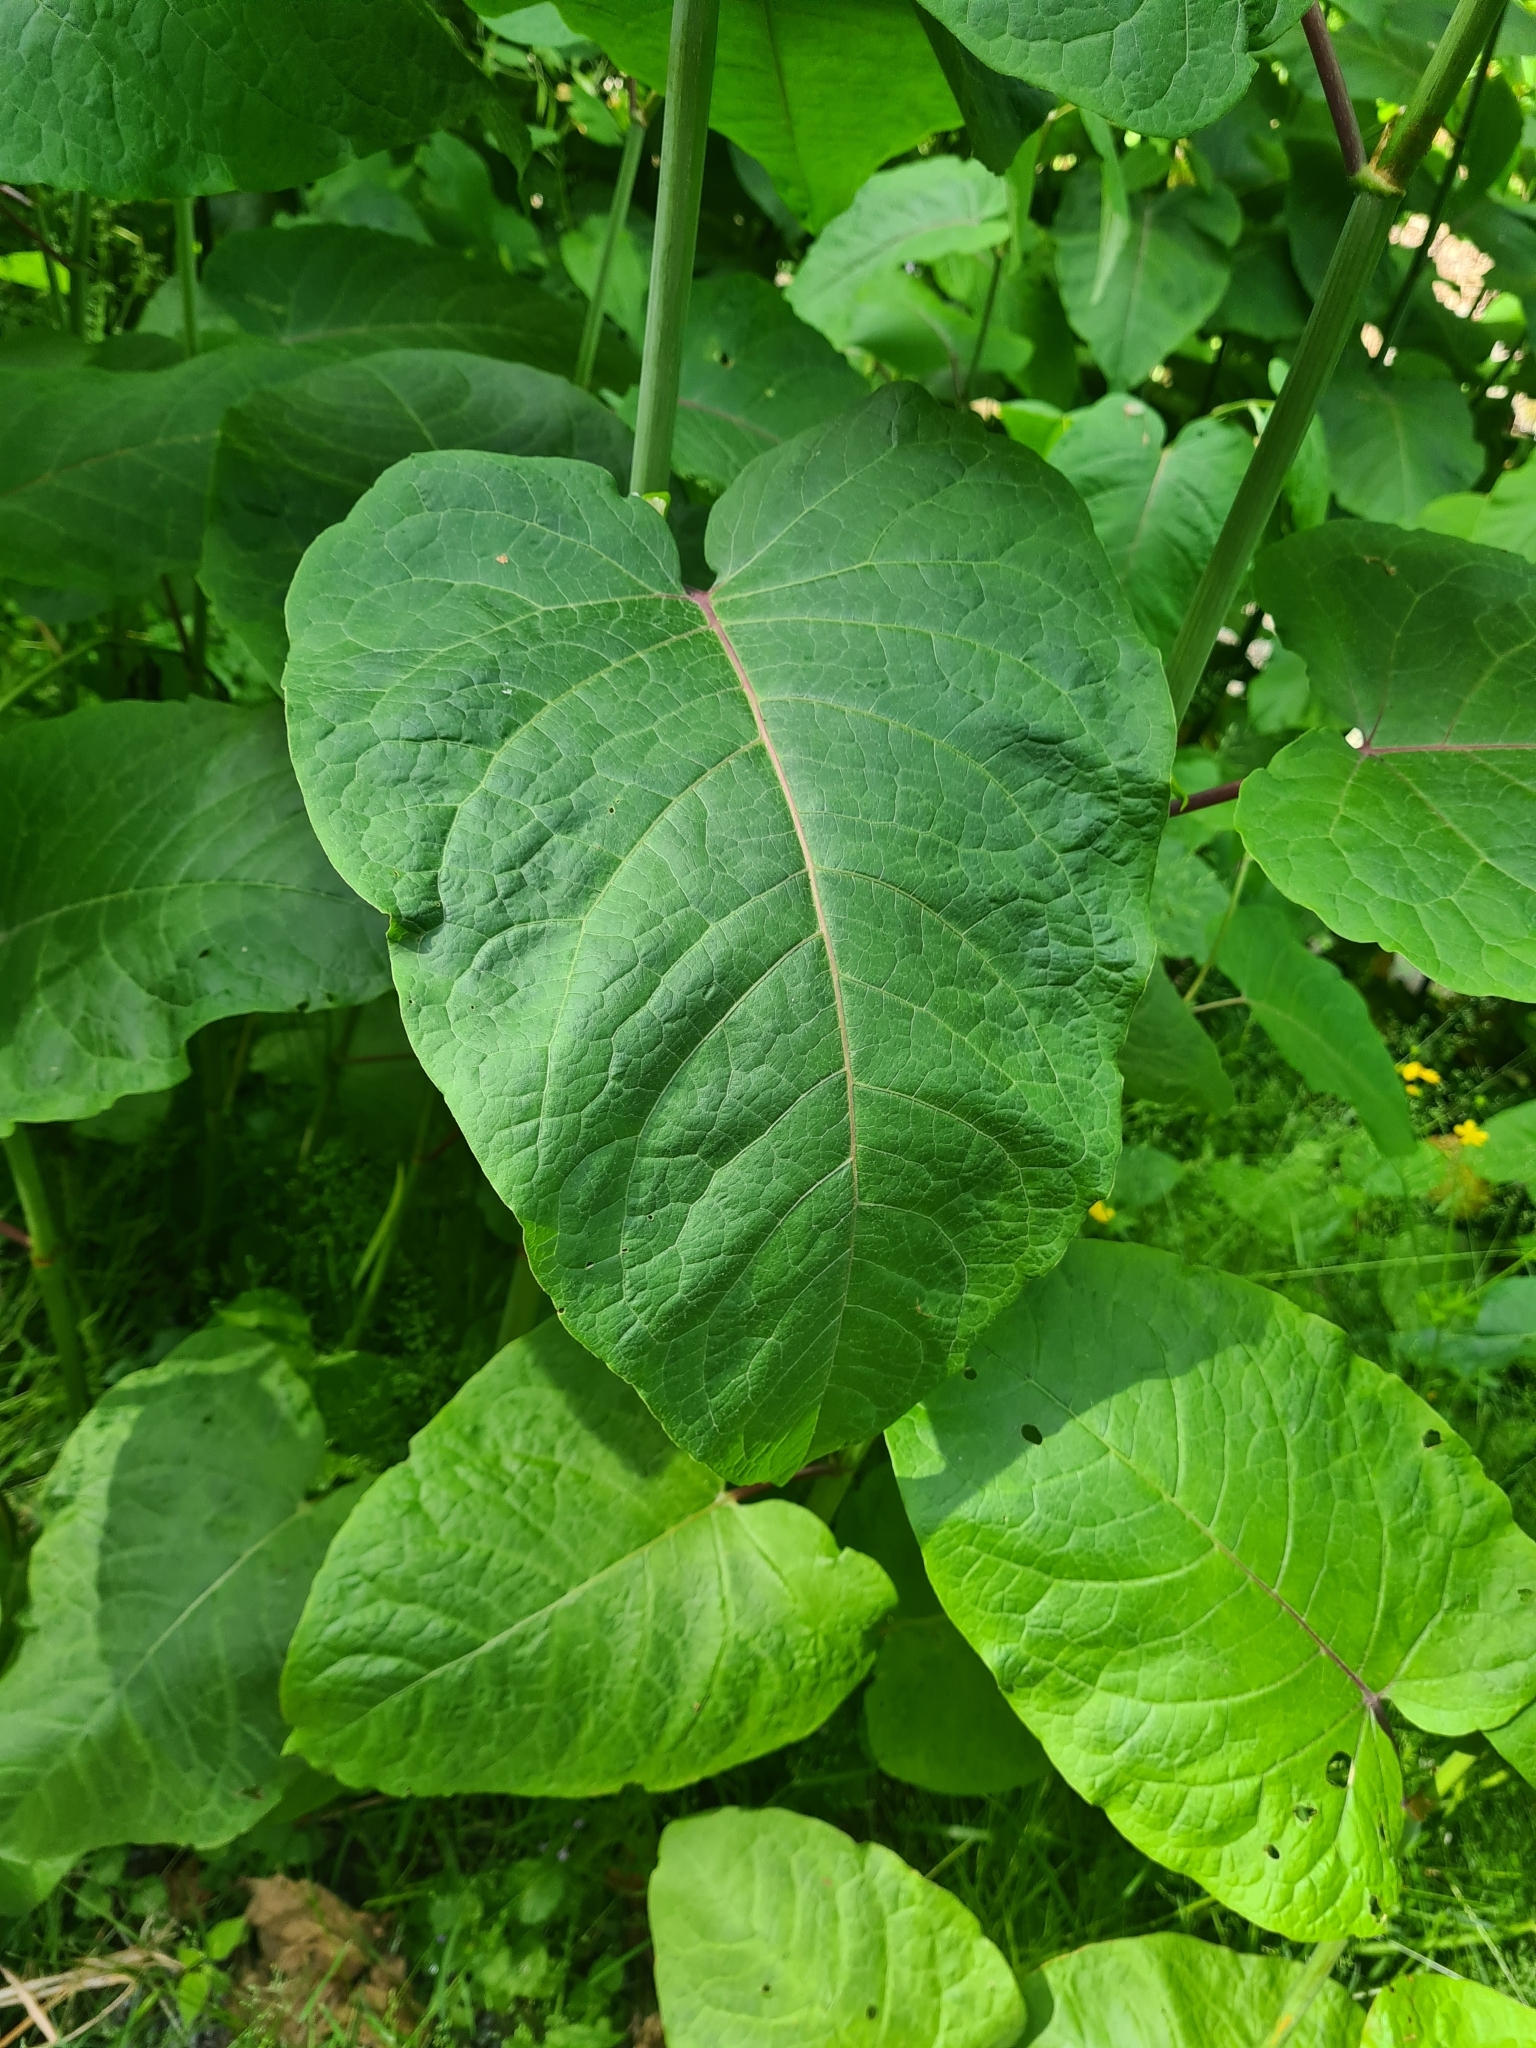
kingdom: Plantae
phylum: Tracheophyta
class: Magnoliopsida
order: Caryophyllales
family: Polygonaceae
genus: Reynoutria
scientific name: Reynoutria sachalinensis
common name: Giant knotweed
